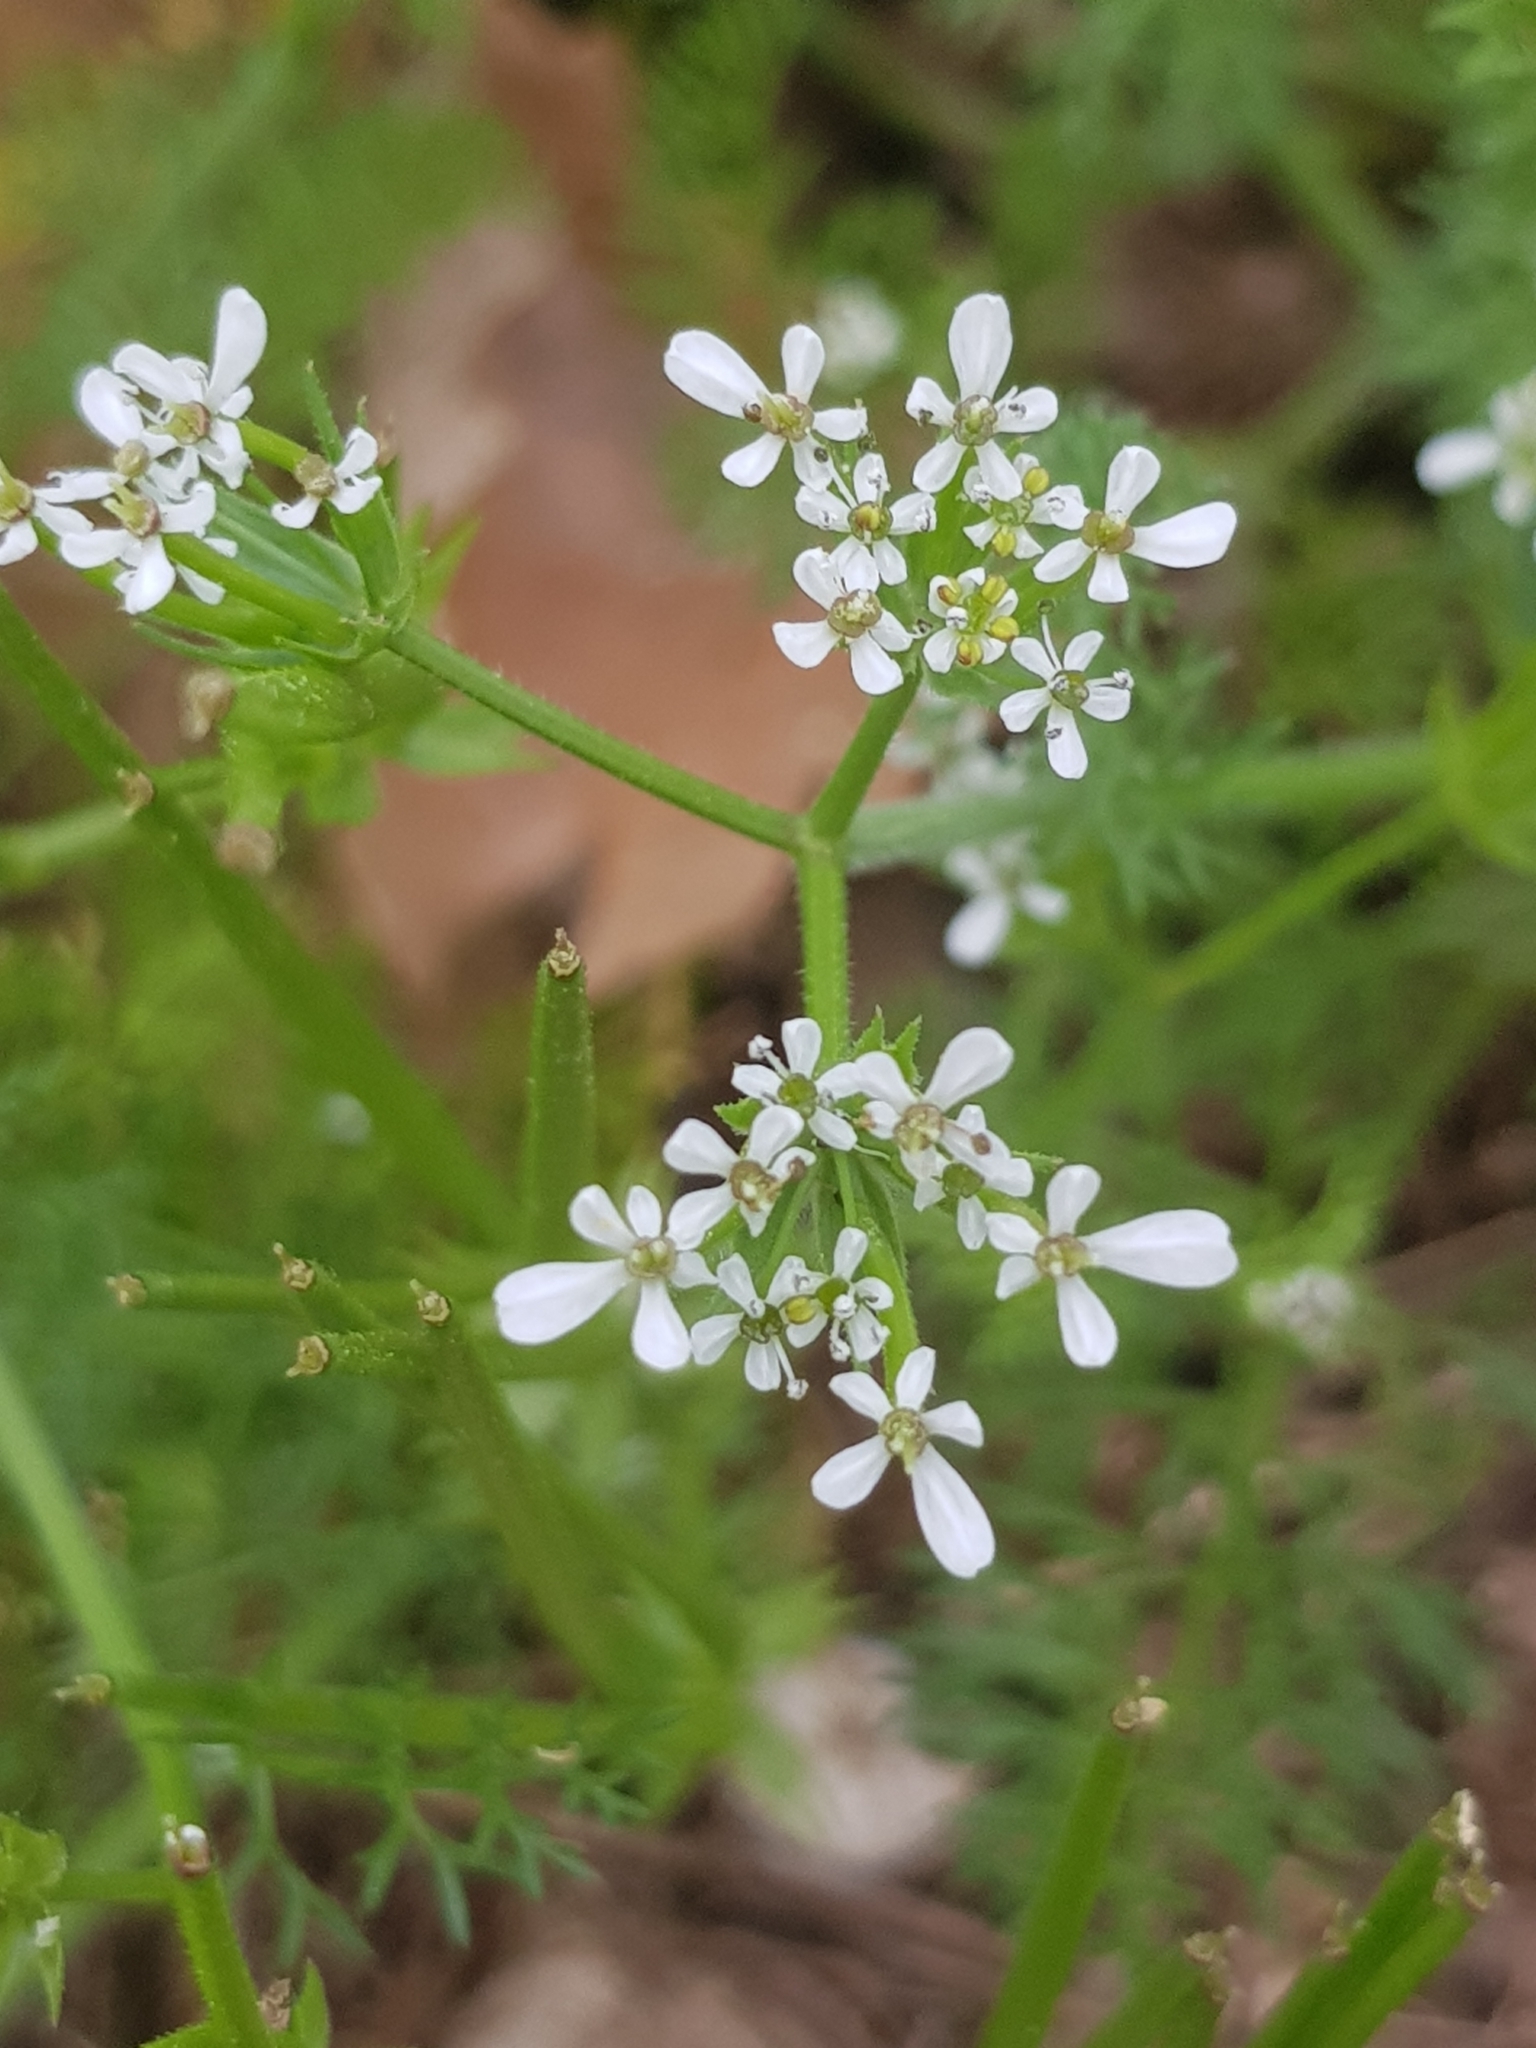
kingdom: Plantae
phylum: Tracheophyta
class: Magnoliopsida
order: Apiales
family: Apiaceae
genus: Scandix
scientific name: Scandix pecten-veneris
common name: Shepherd's-needle
